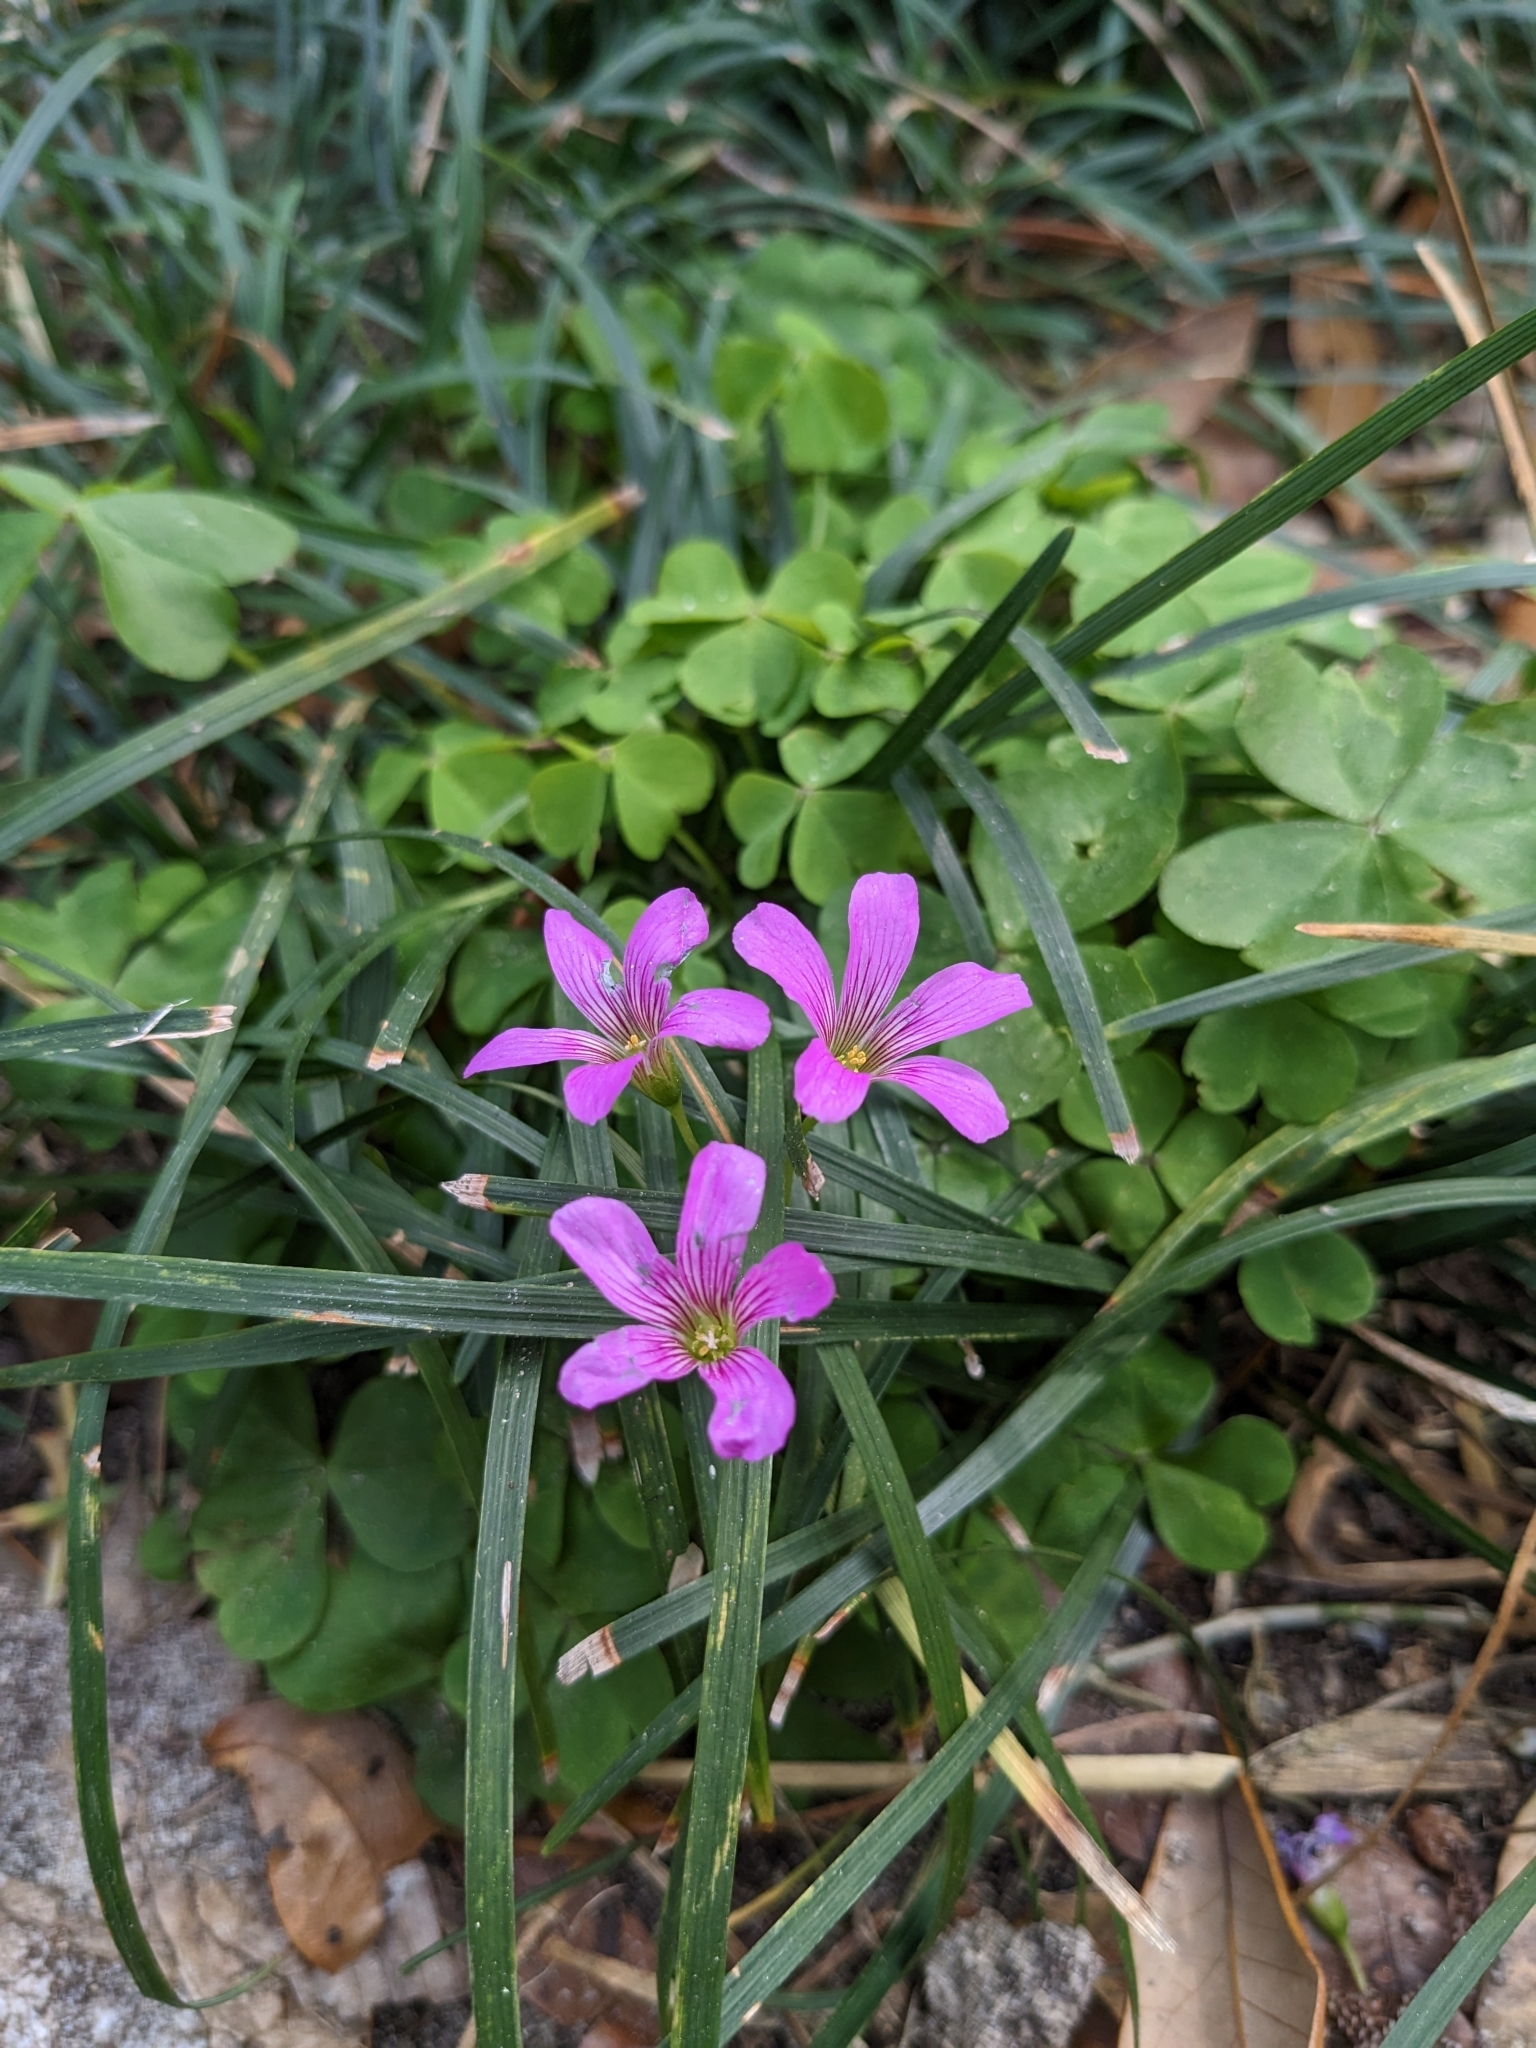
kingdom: Plantae
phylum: Tracheophyta
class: Magnoliopsida
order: Oxalidales
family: Oxalidaceae
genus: Oxalis
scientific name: Oxalis debilis
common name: Large-flowered pink-sorrel
